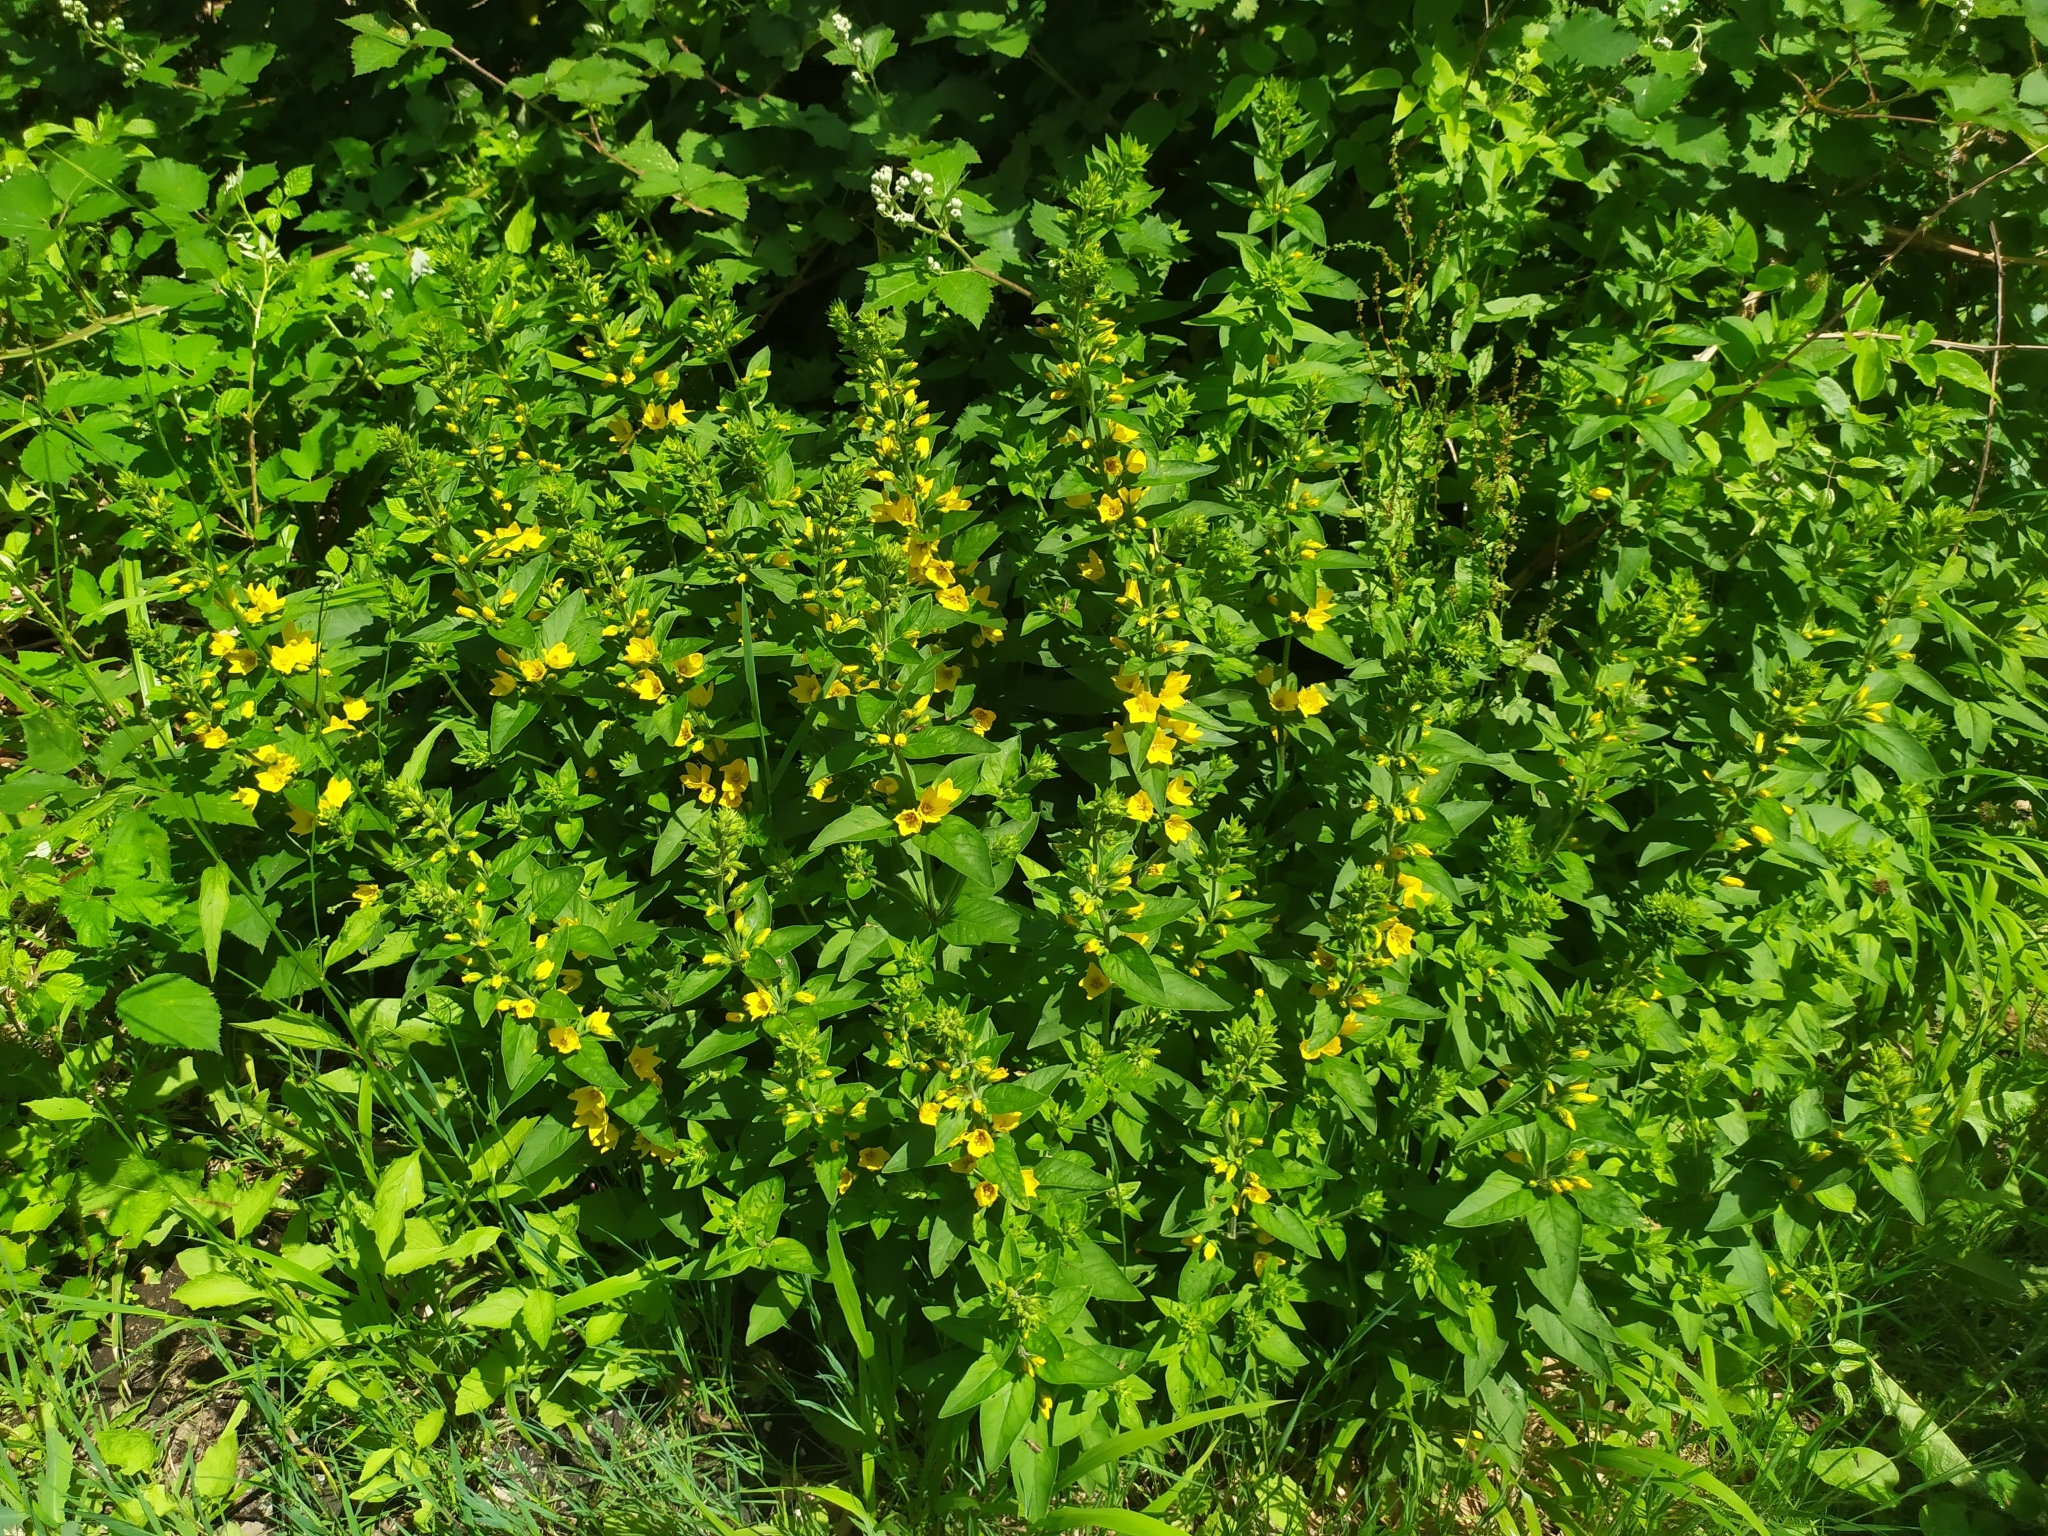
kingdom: Plantae
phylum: Tracheophyta
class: Magnoliopsida
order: Ericales
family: Primulaceae
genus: Lysimachia
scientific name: Lysimachia punctata
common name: Dotted loosestrife
